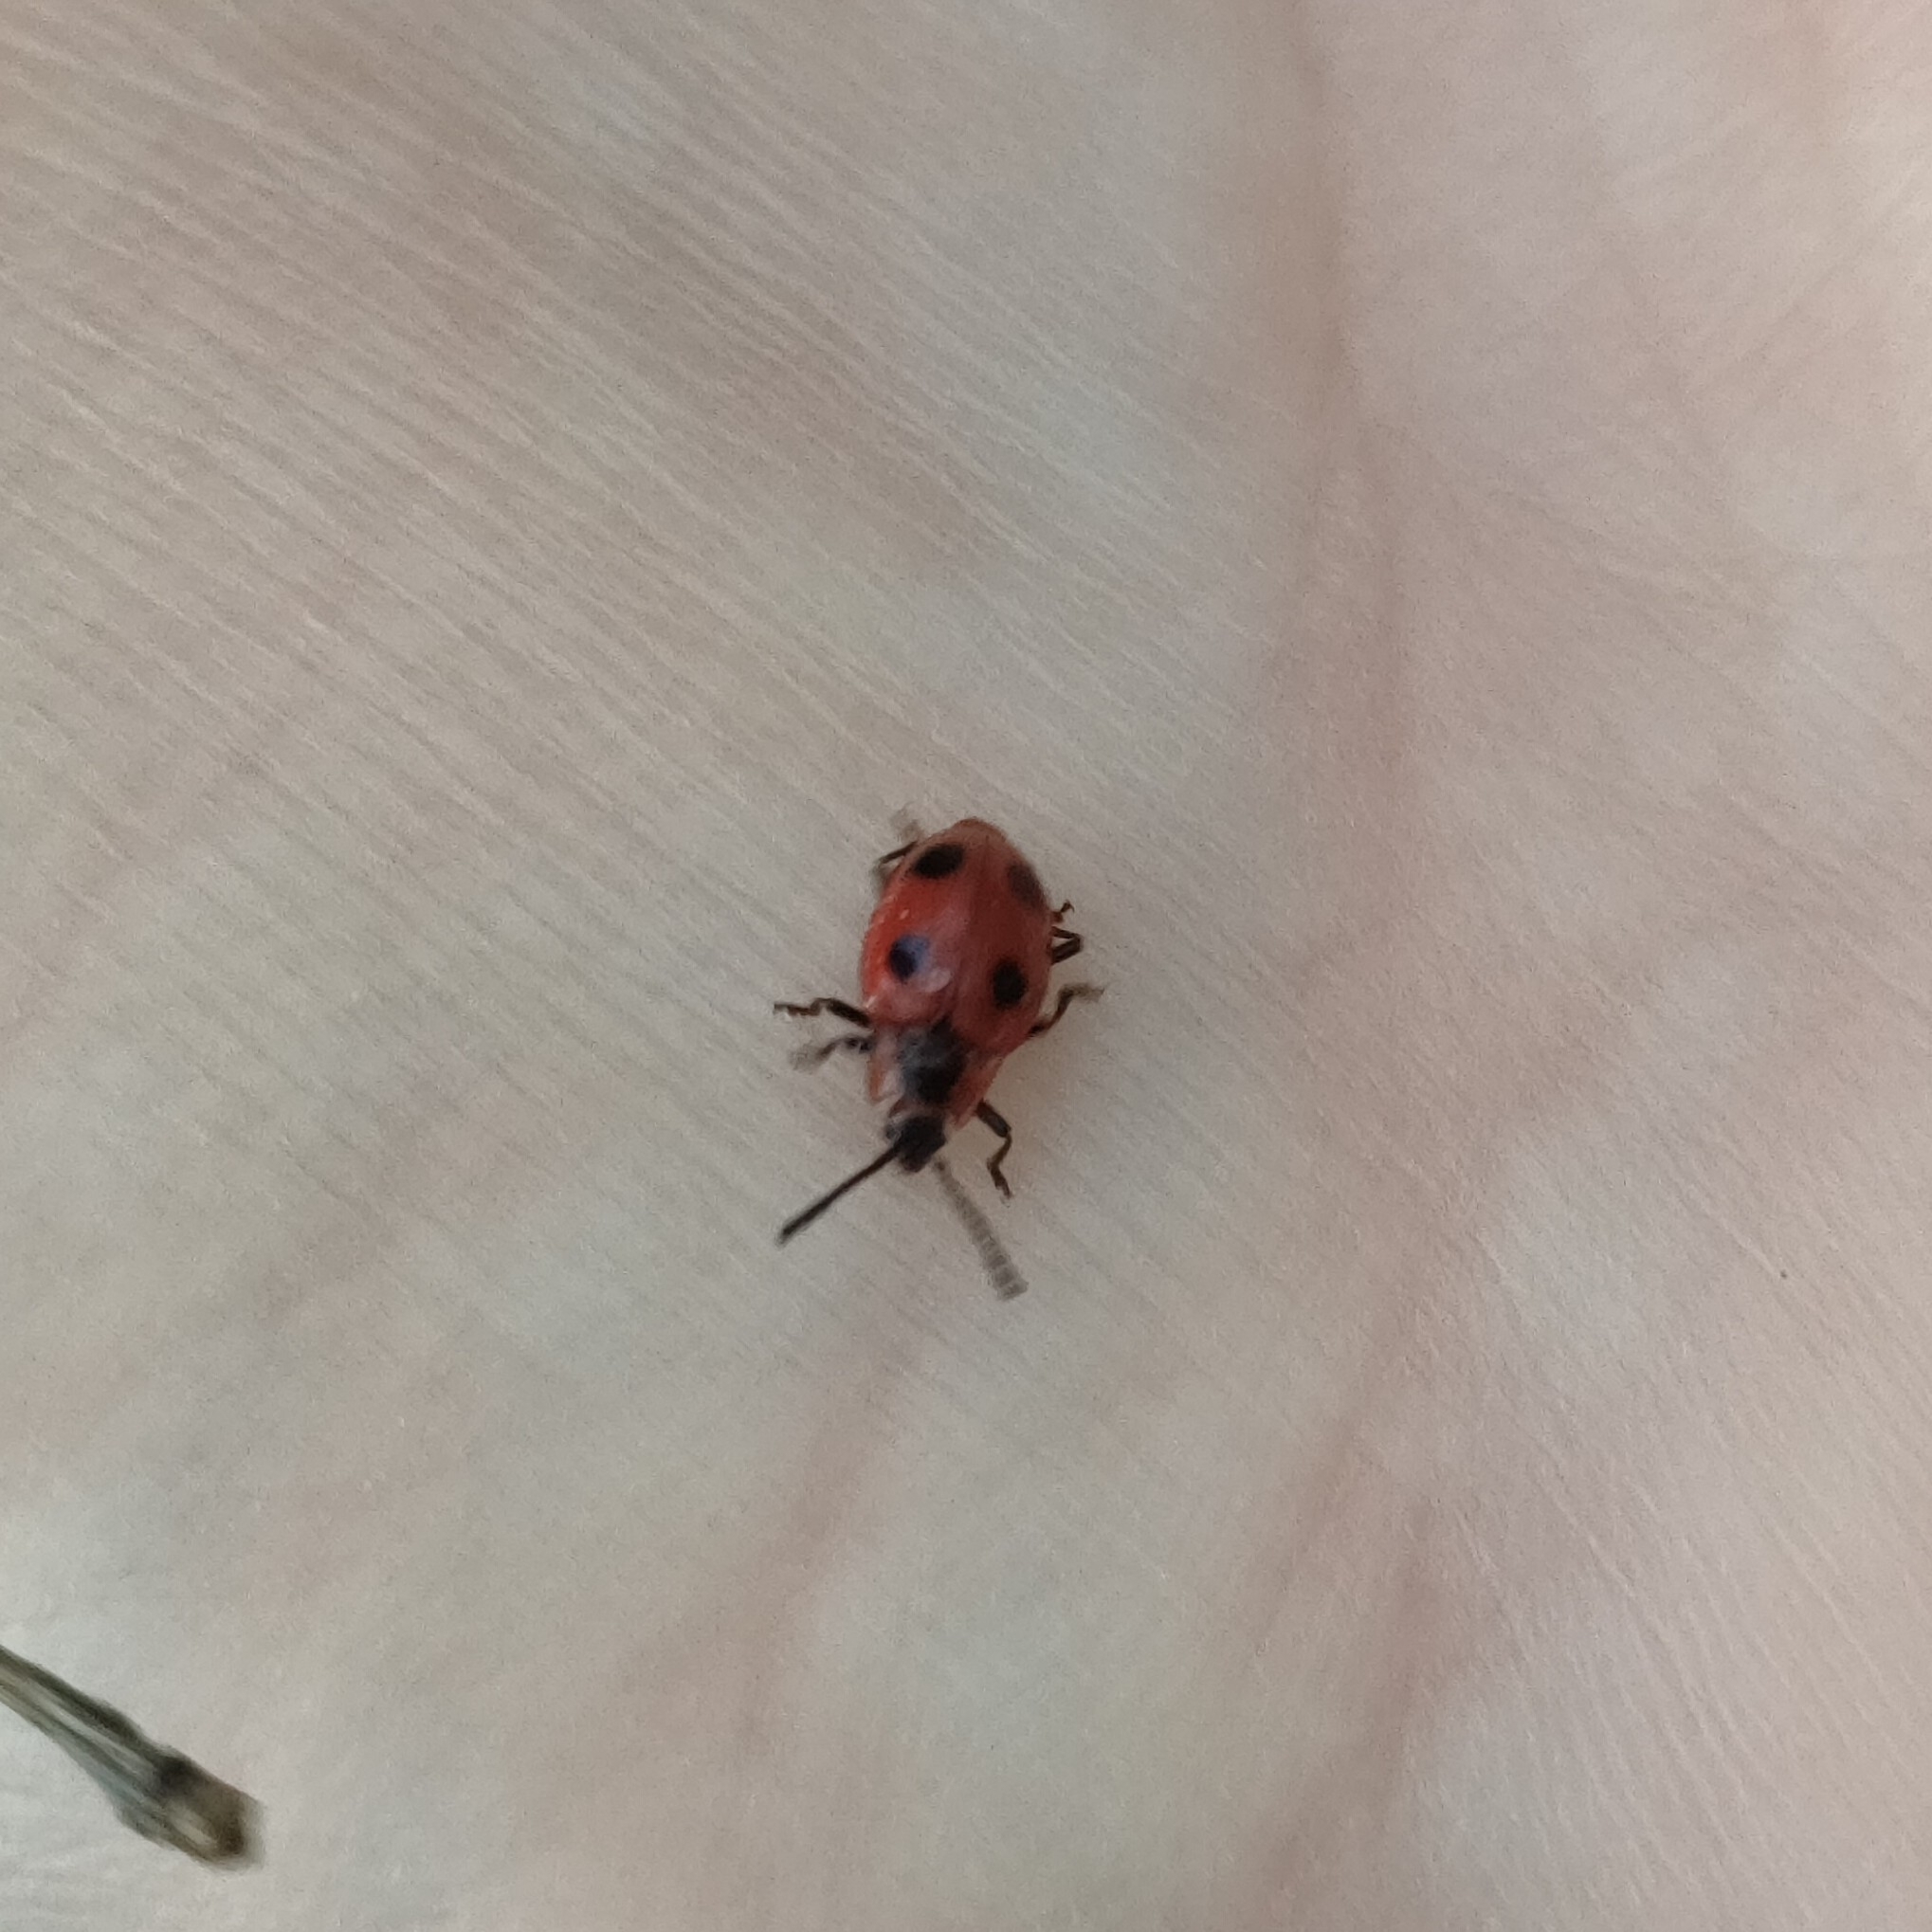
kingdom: Animalia
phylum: Arthropoda
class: Insecta
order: Coleoptera
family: Endomychidae
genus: Endomychus
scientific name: Endomychus coccineus
